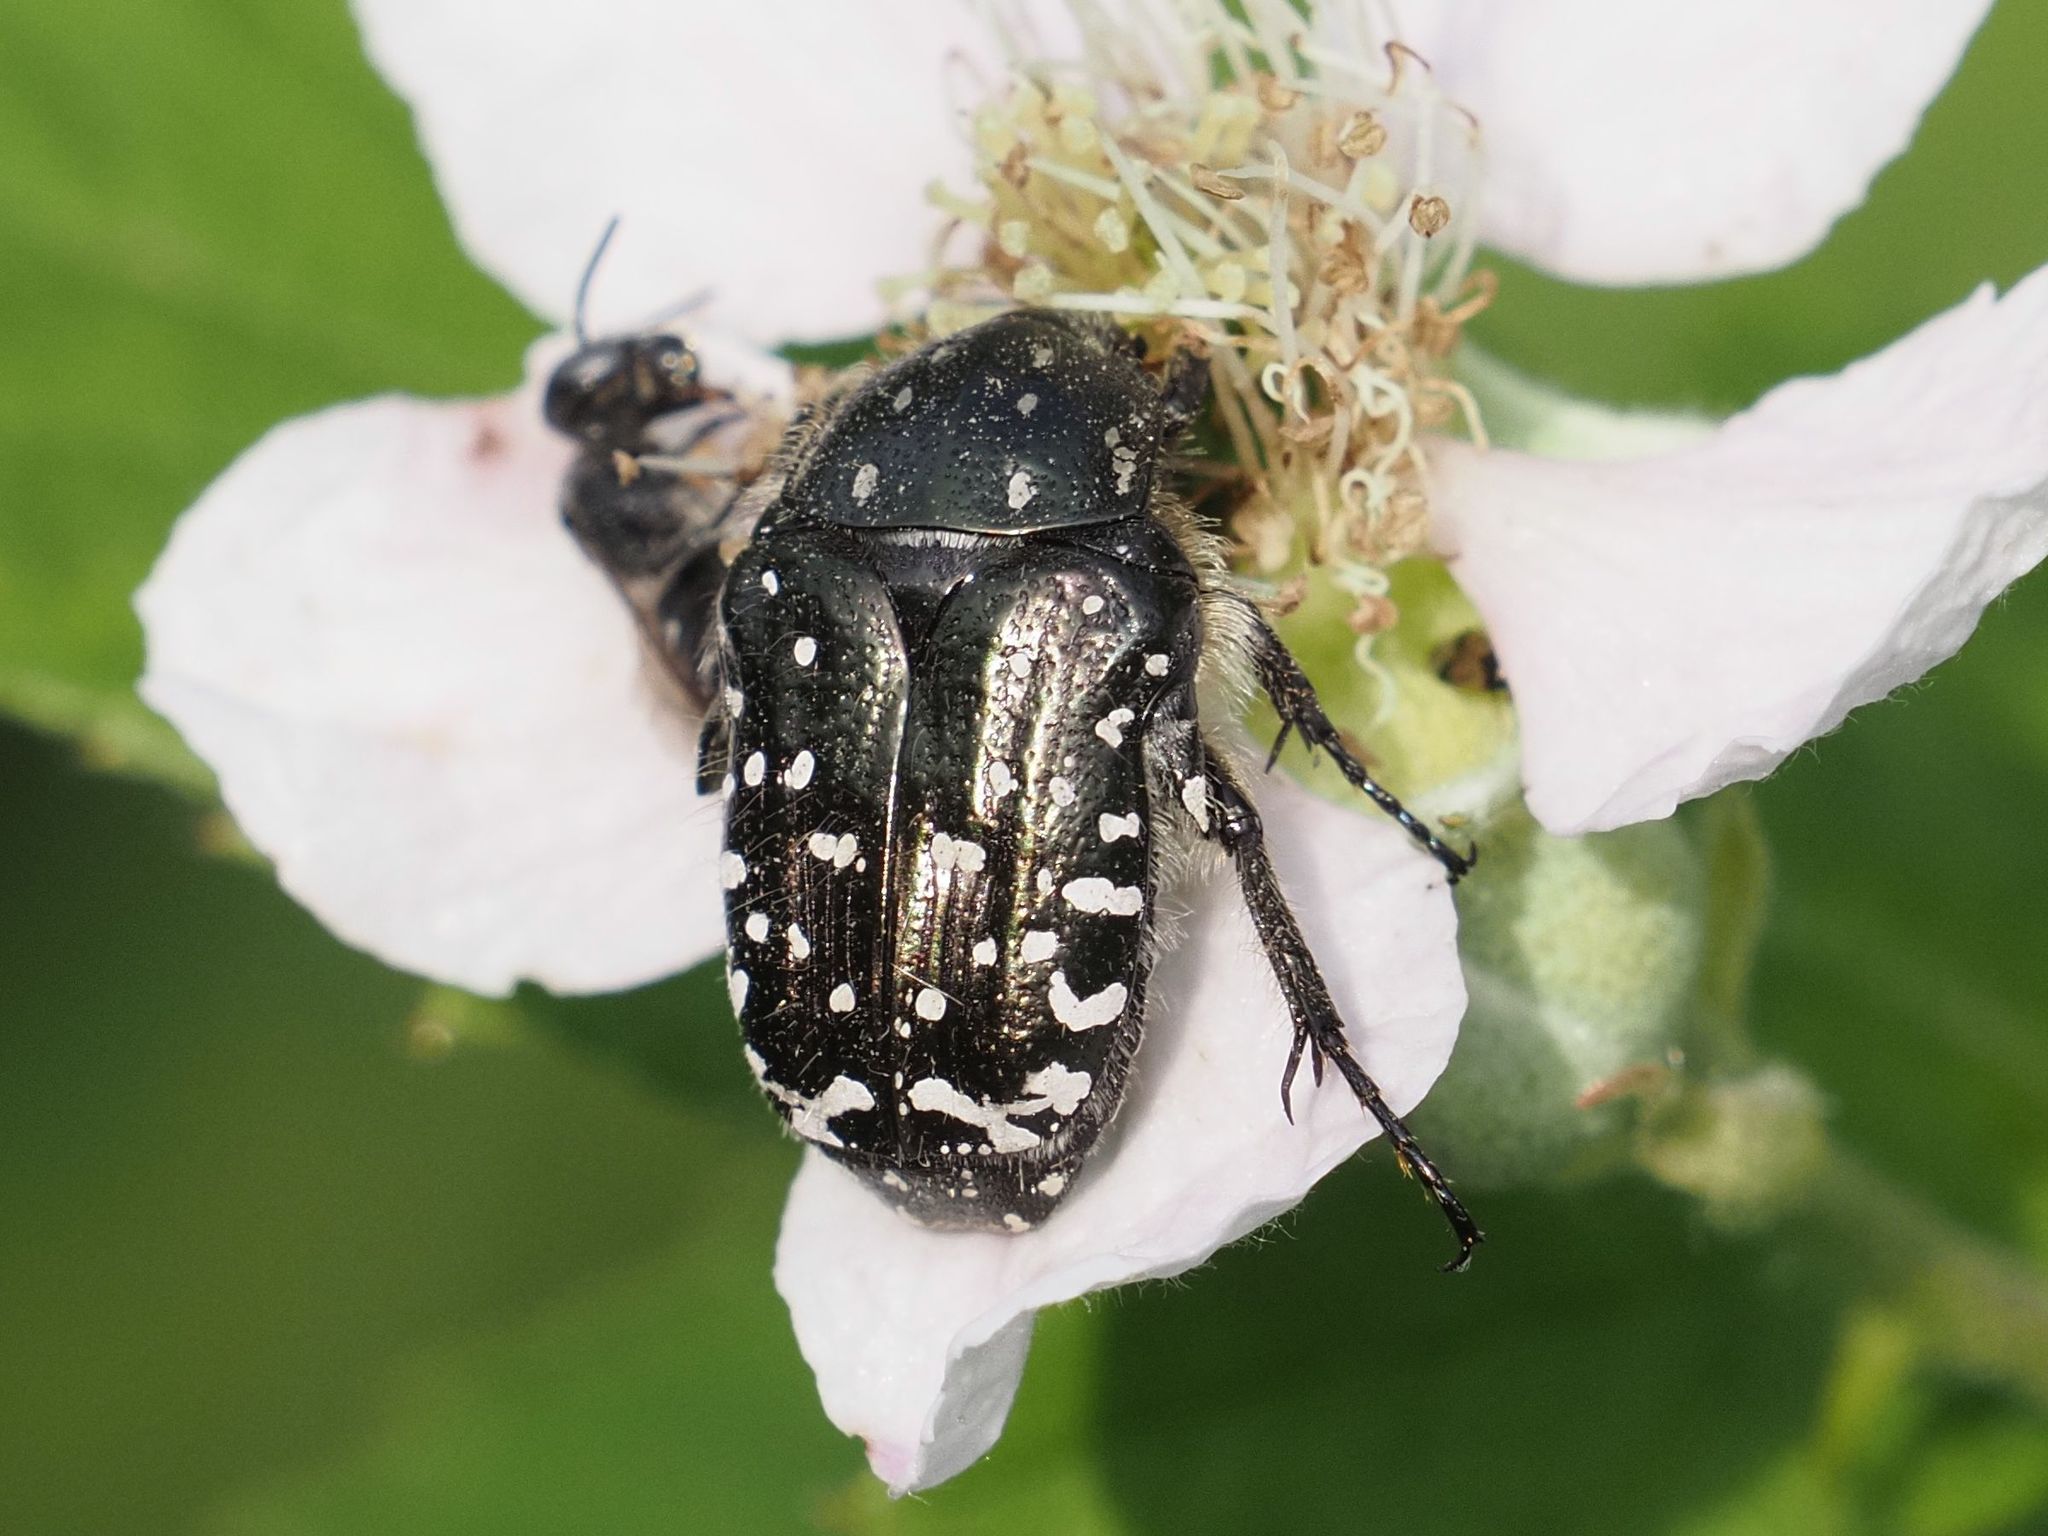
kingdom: Animalia
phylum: Arthropoda
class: Insecta
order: Coleoptera
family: Scarabaeidae
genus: Oxythyrea
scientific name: Oxythyrea funesta
